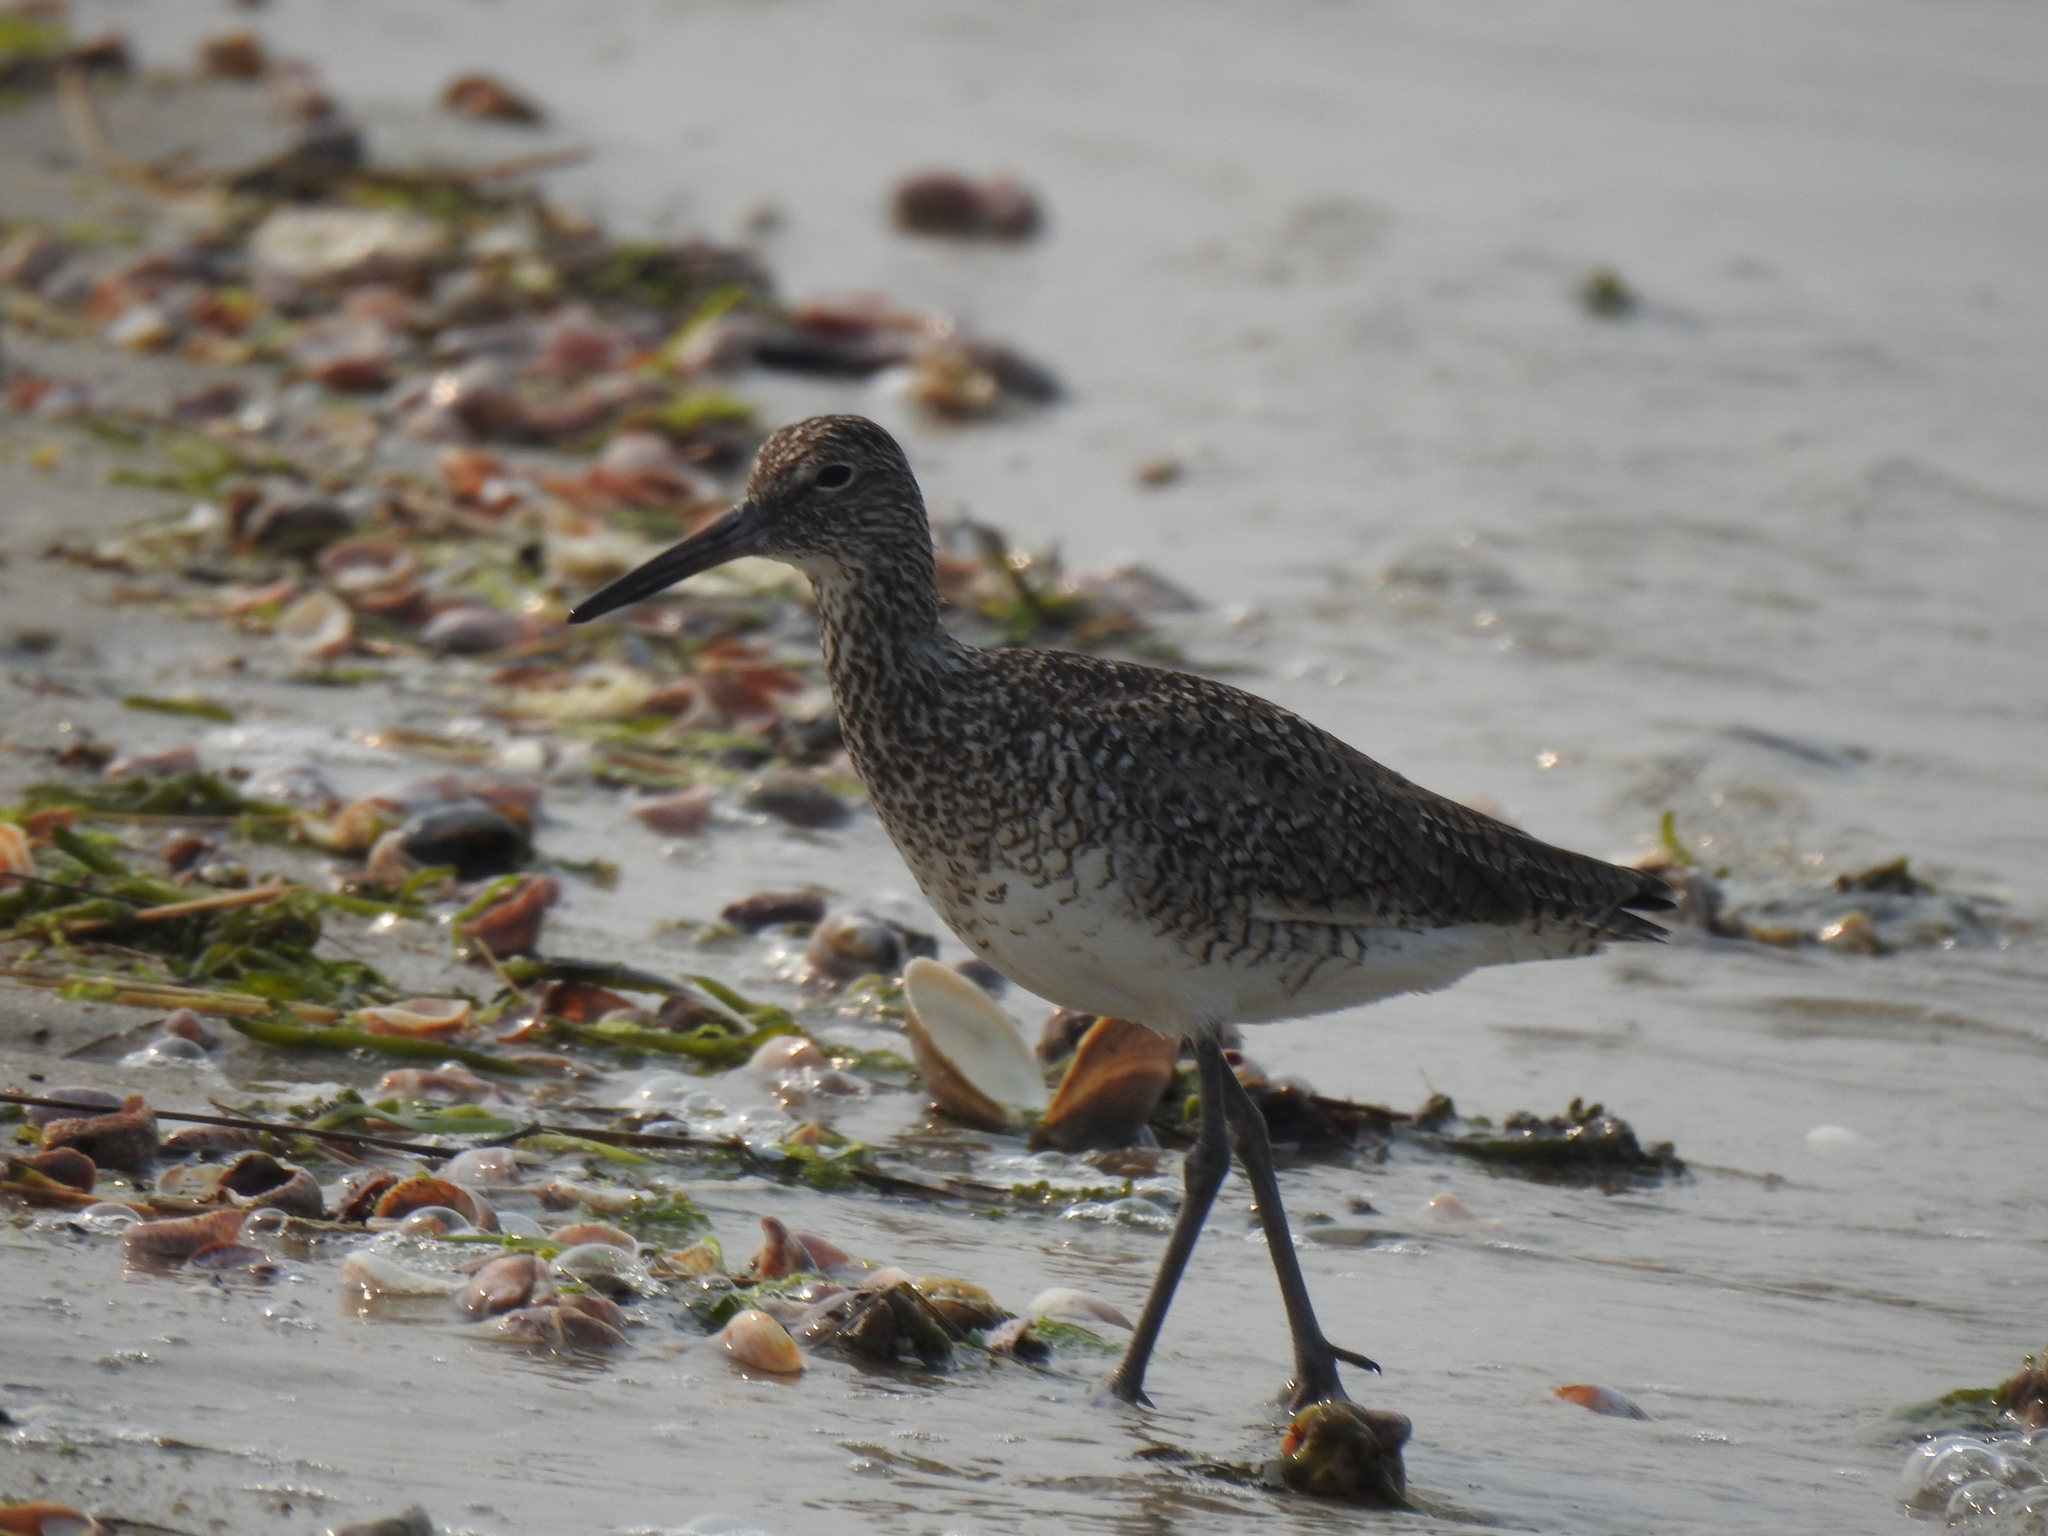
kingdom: Animalia
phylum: Chordata
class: Aves
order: Charadriiformes
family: Scolopacidae
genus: Tringa
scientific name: Tringa semipalmata
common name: Willet
